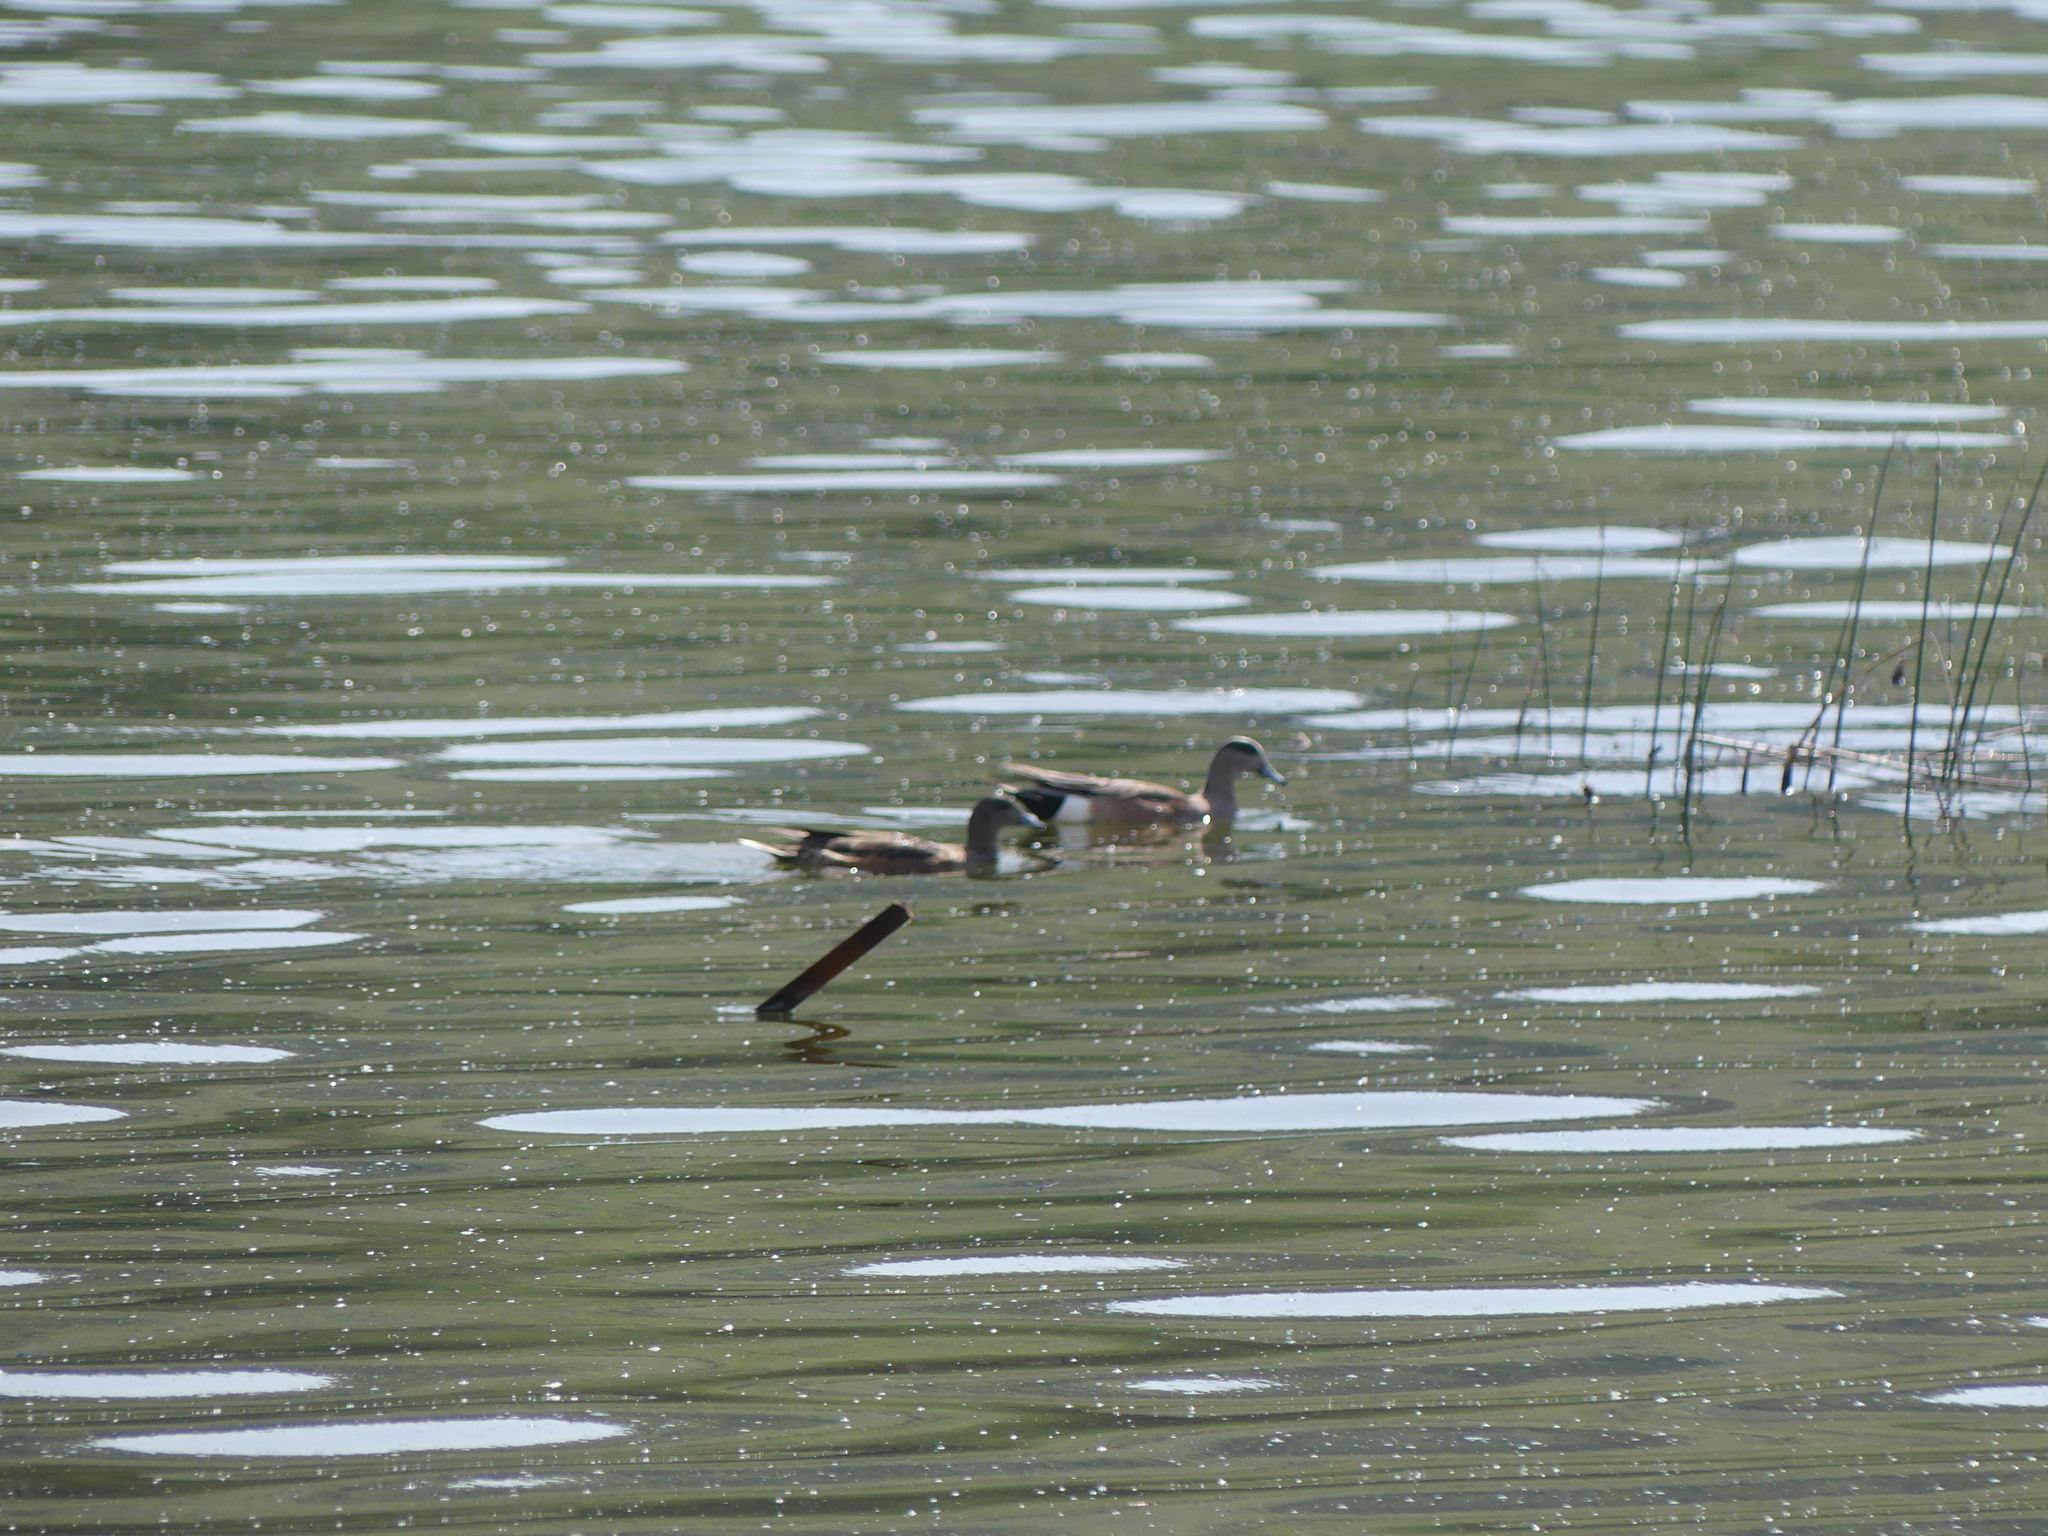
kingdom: Animalia
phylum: Chordata
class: Aves
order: Anseriformes
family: Anatidae
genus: Mareca
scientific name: Mareca americana
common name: American wigeon
